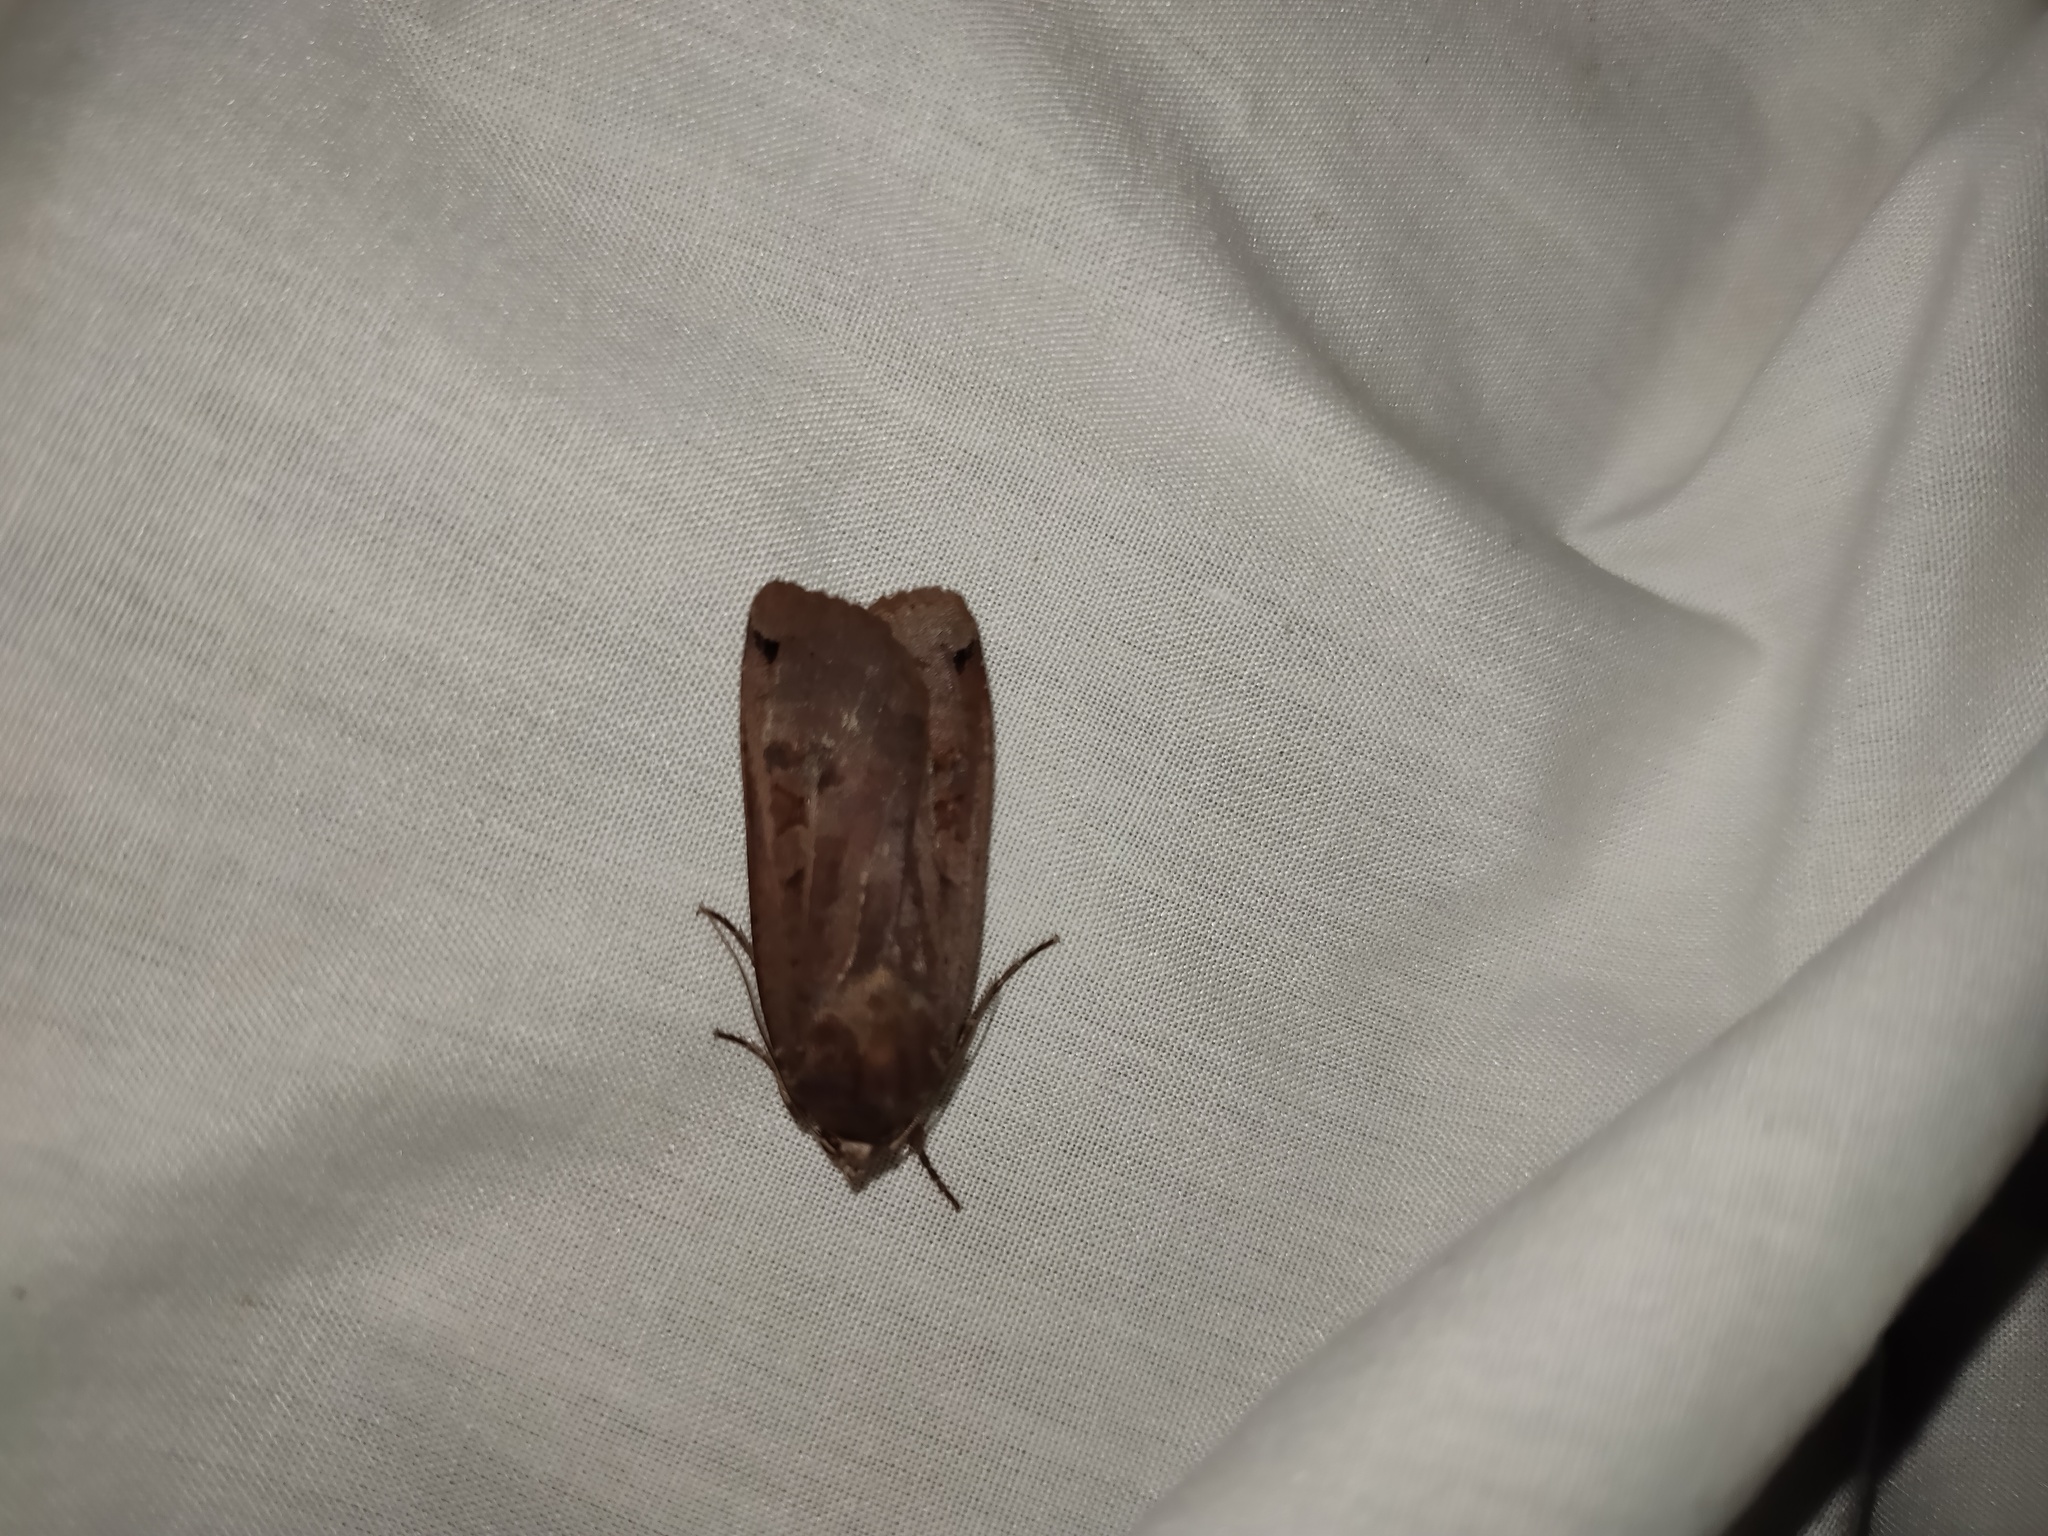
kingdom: Animalia
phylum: Arthropoda
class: Insecta
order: Lepidoptera
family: Noctuidae
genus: Noctua
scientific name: Noctua pronuba
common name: Large yellow underwing
